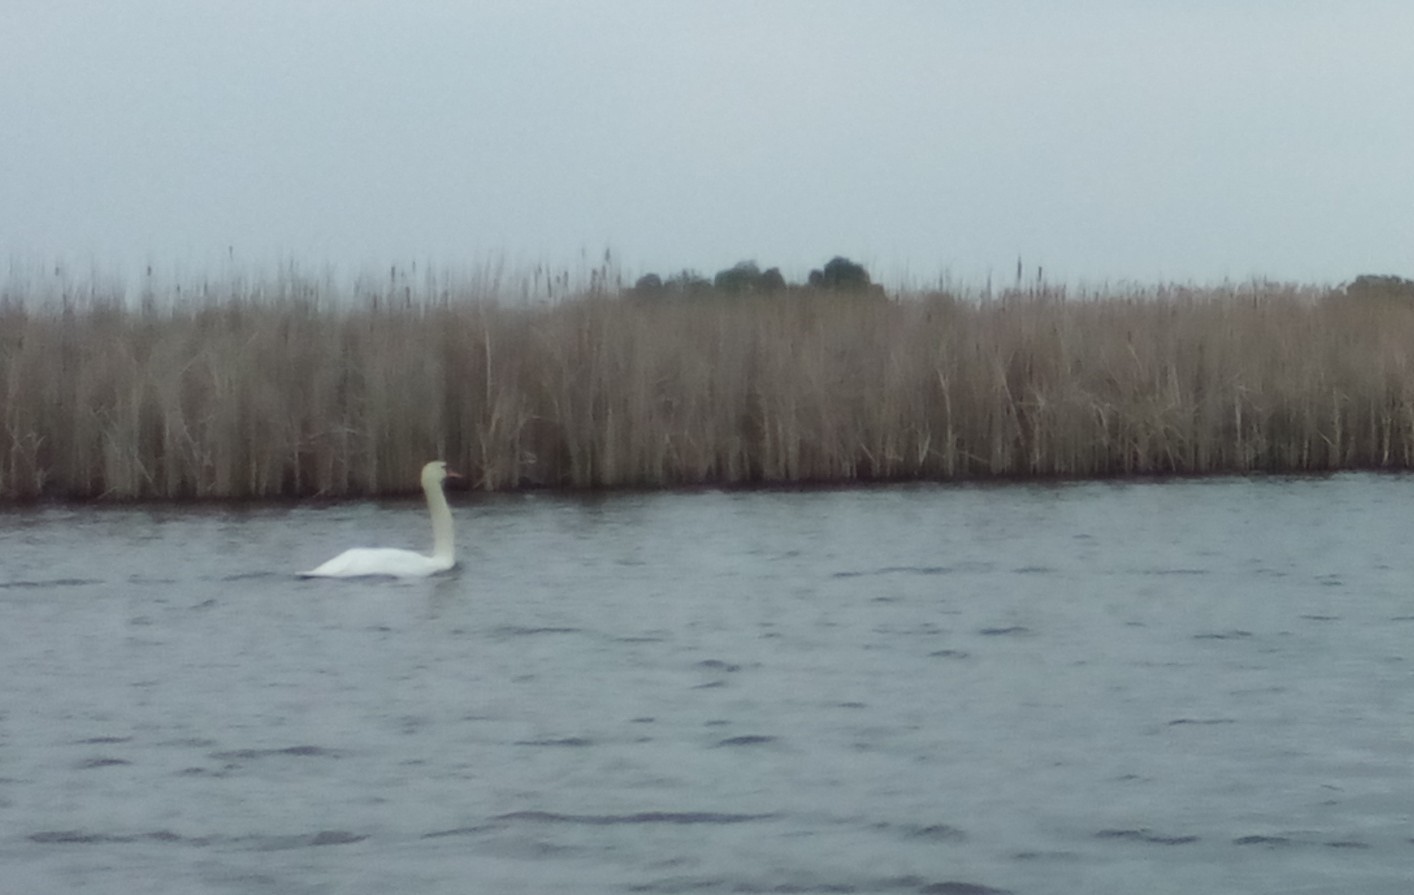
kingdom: Animalia
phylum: Chordata
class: Aves
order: Anseriformes
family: Anatidae
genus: Cygnus
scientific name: Cygnus olor
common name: Mute swan
